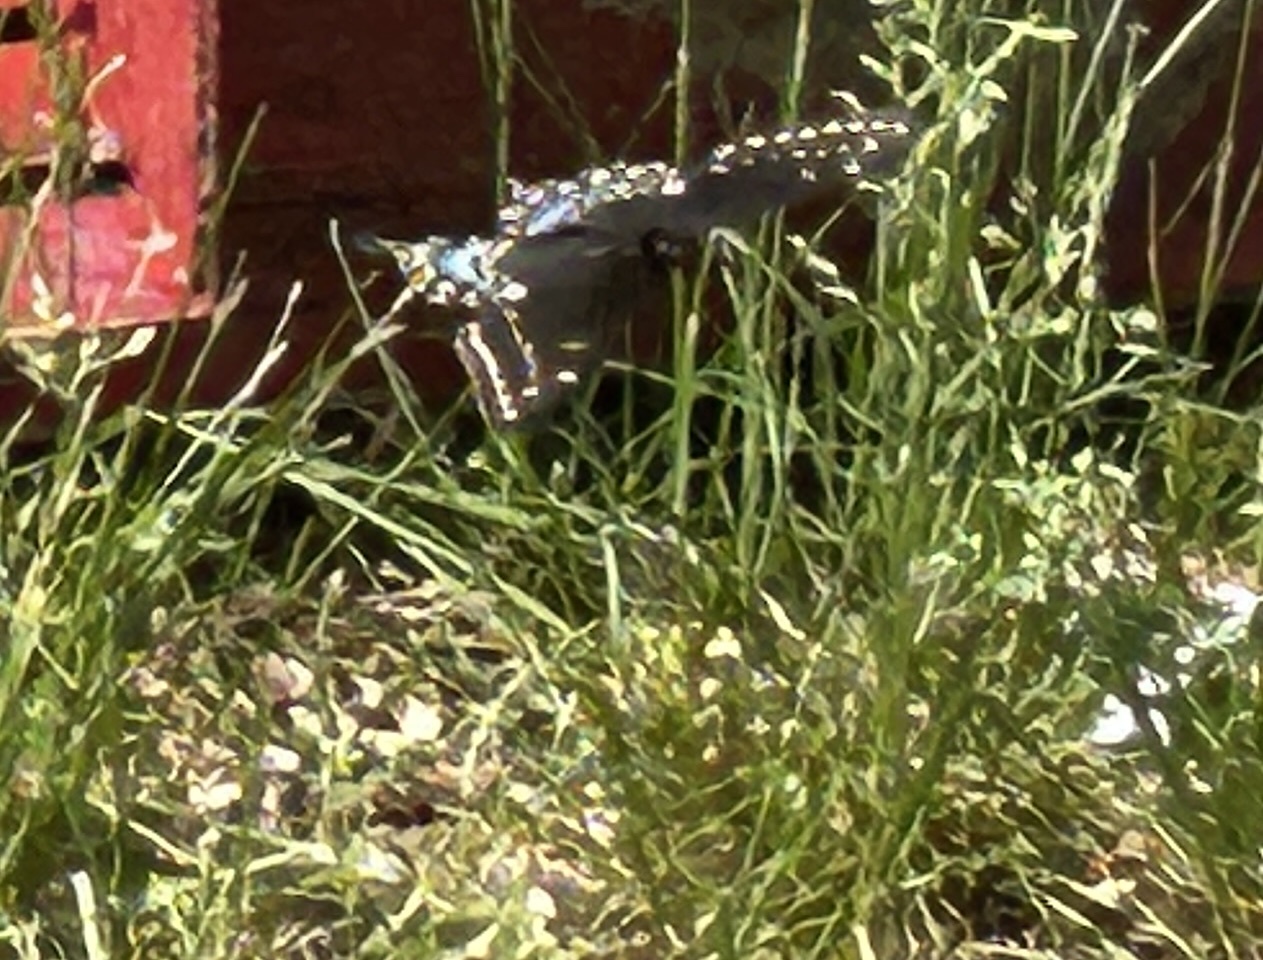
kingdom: Animalia
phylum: Arthropoda
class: Insecta
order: Lepidoptera
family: Papilionidae
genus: Papilio
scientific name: Papilio polyxenes
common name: Black swallowtail
